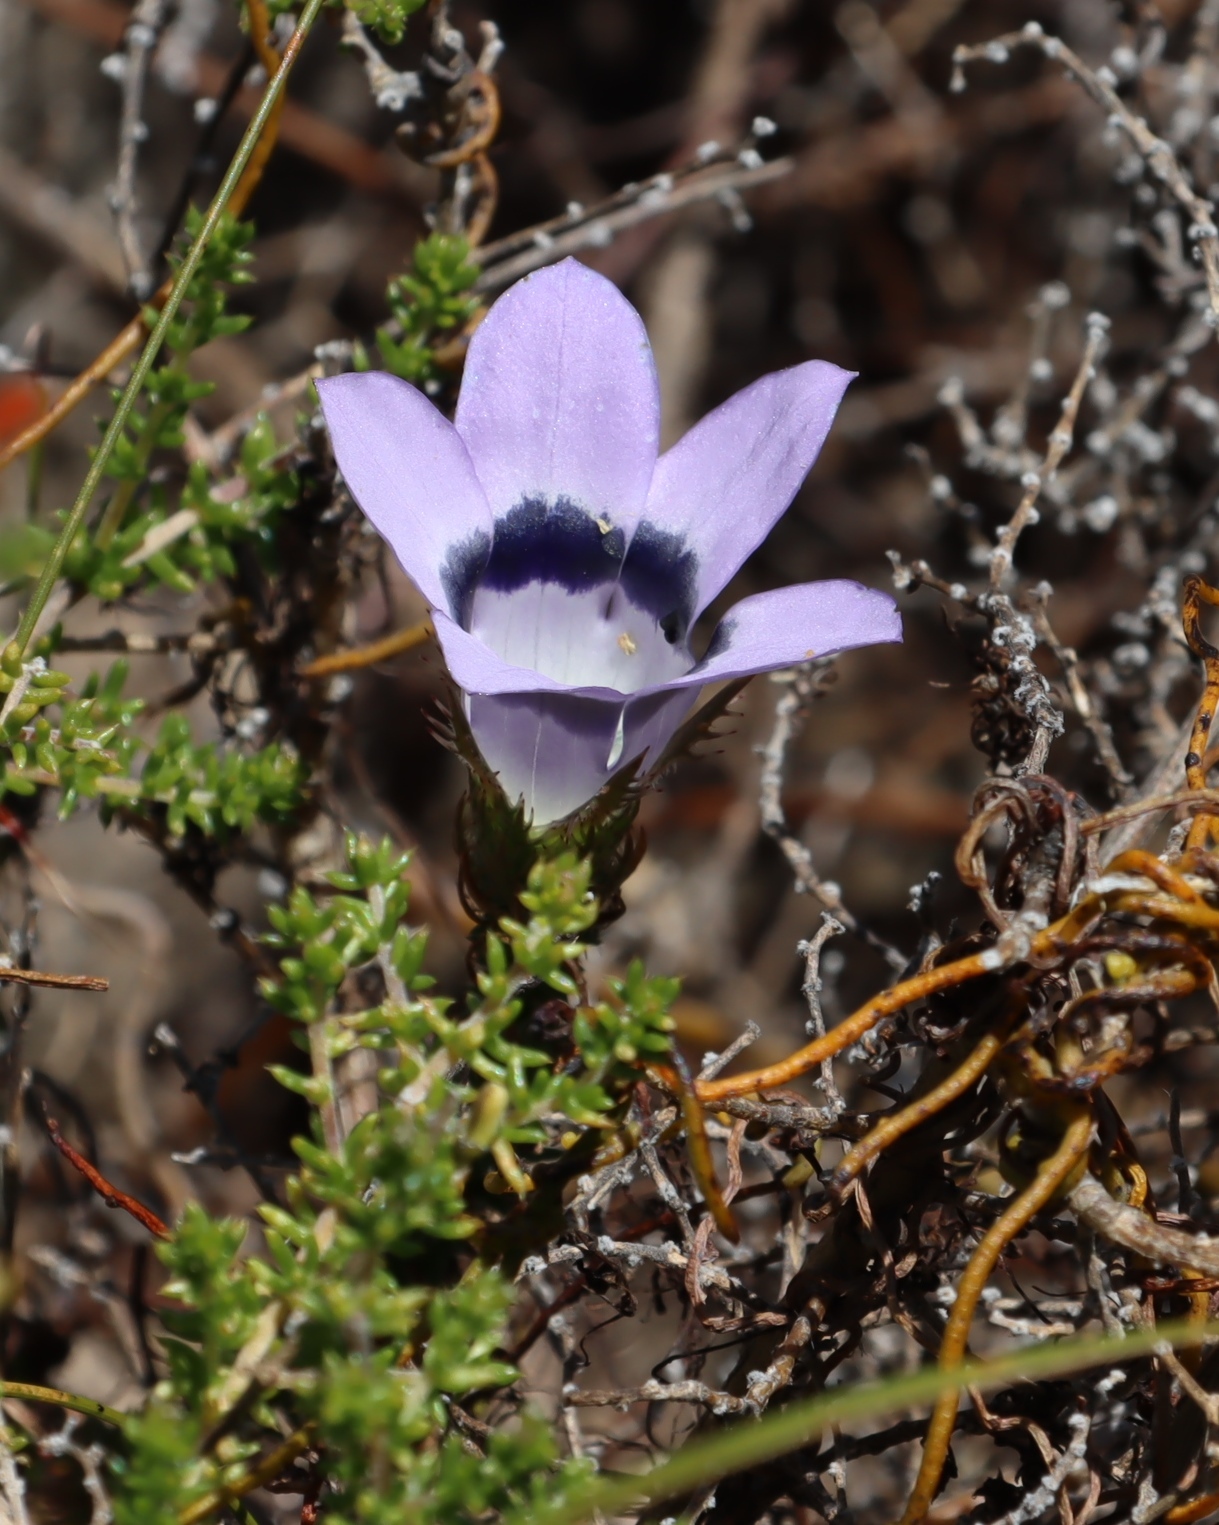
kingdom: Plantae
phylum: Tracheophyta
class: Magnoliopsida
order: Asterales
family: Campanulaceae
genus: Roella
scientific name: Roella ciliata
